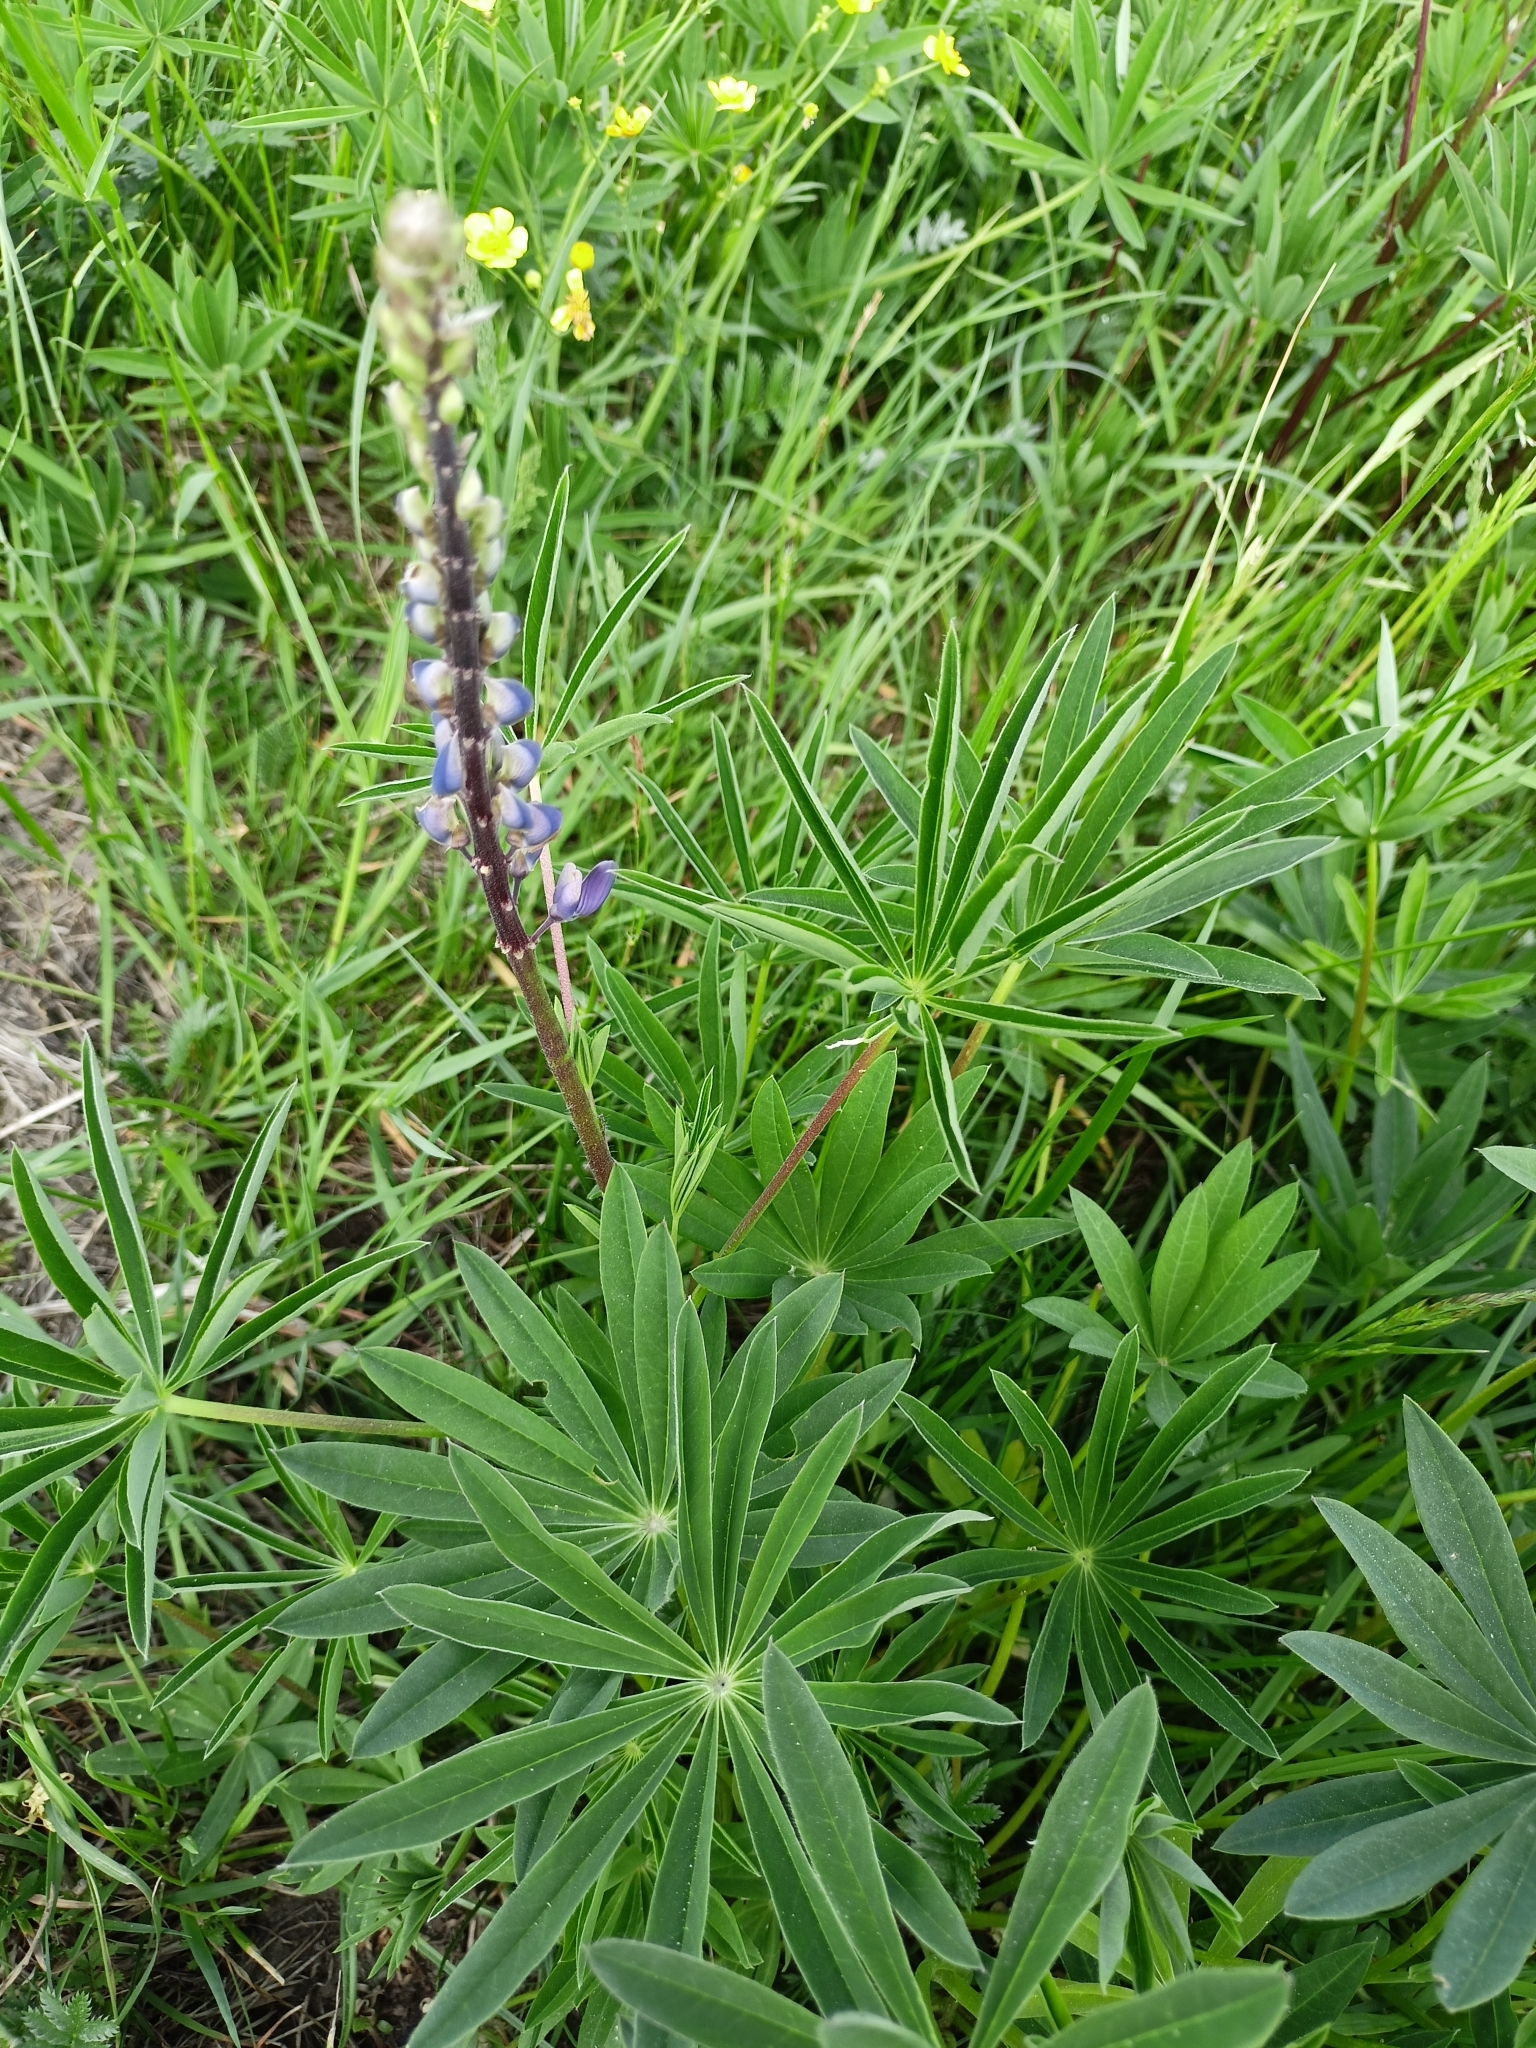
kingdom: Plantae
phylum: Tracheophyta
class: Magnoliopsida
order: Fabales
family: Fabaceae
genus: Lupinus
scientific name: Lupinus polyphyllus
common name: Garden lupin
